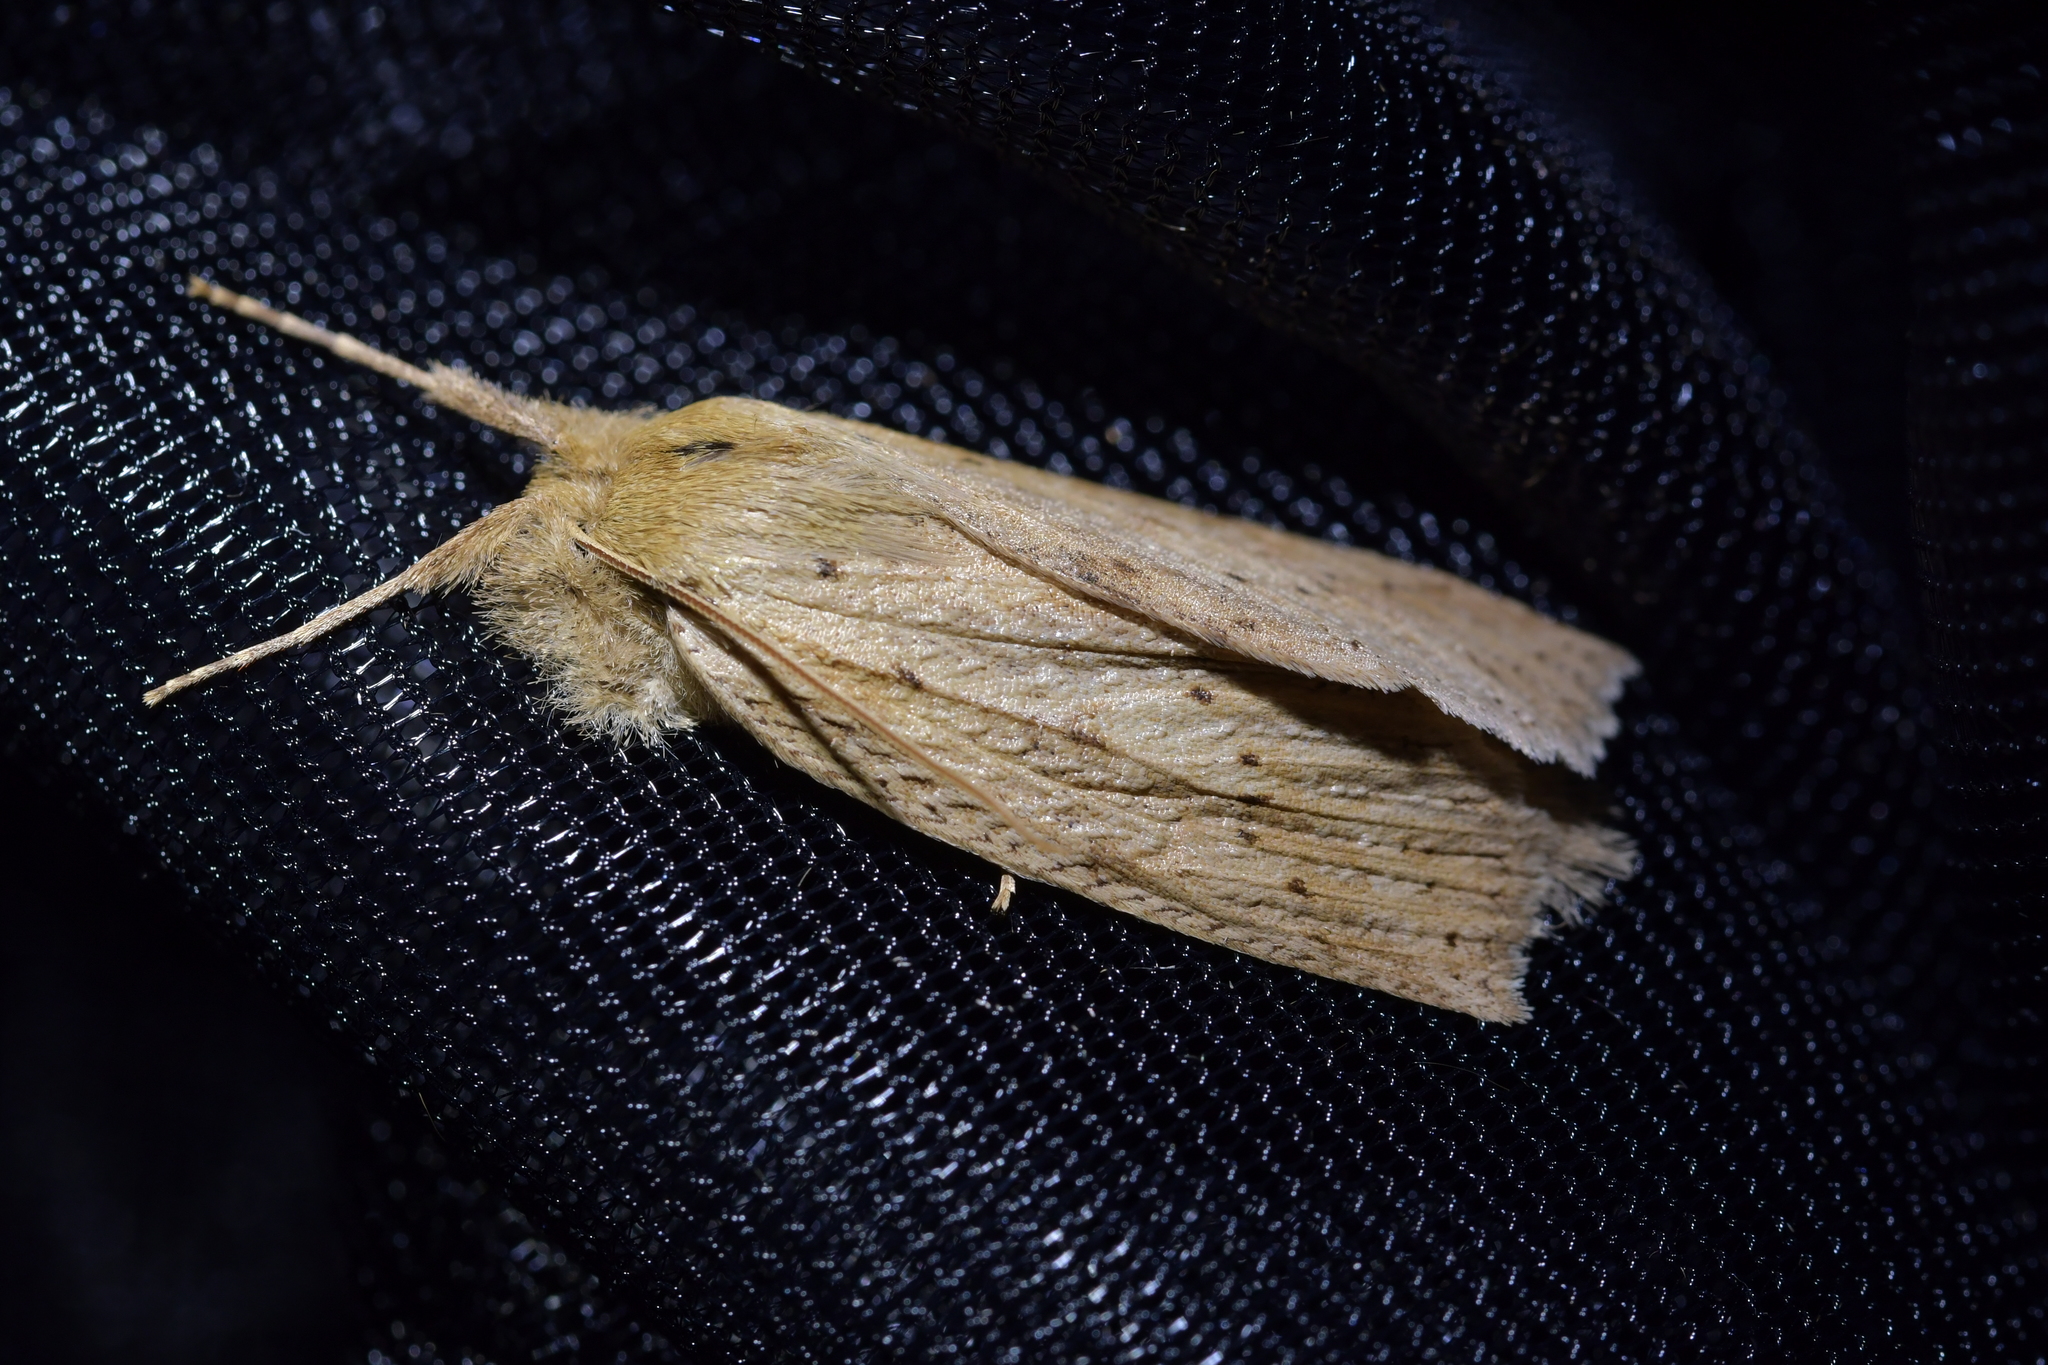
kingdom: Animalia
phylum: Arthropoda
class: Insecta
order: Lepidoptera
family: Geometridae
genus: Declana
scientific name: Declana leptomera
